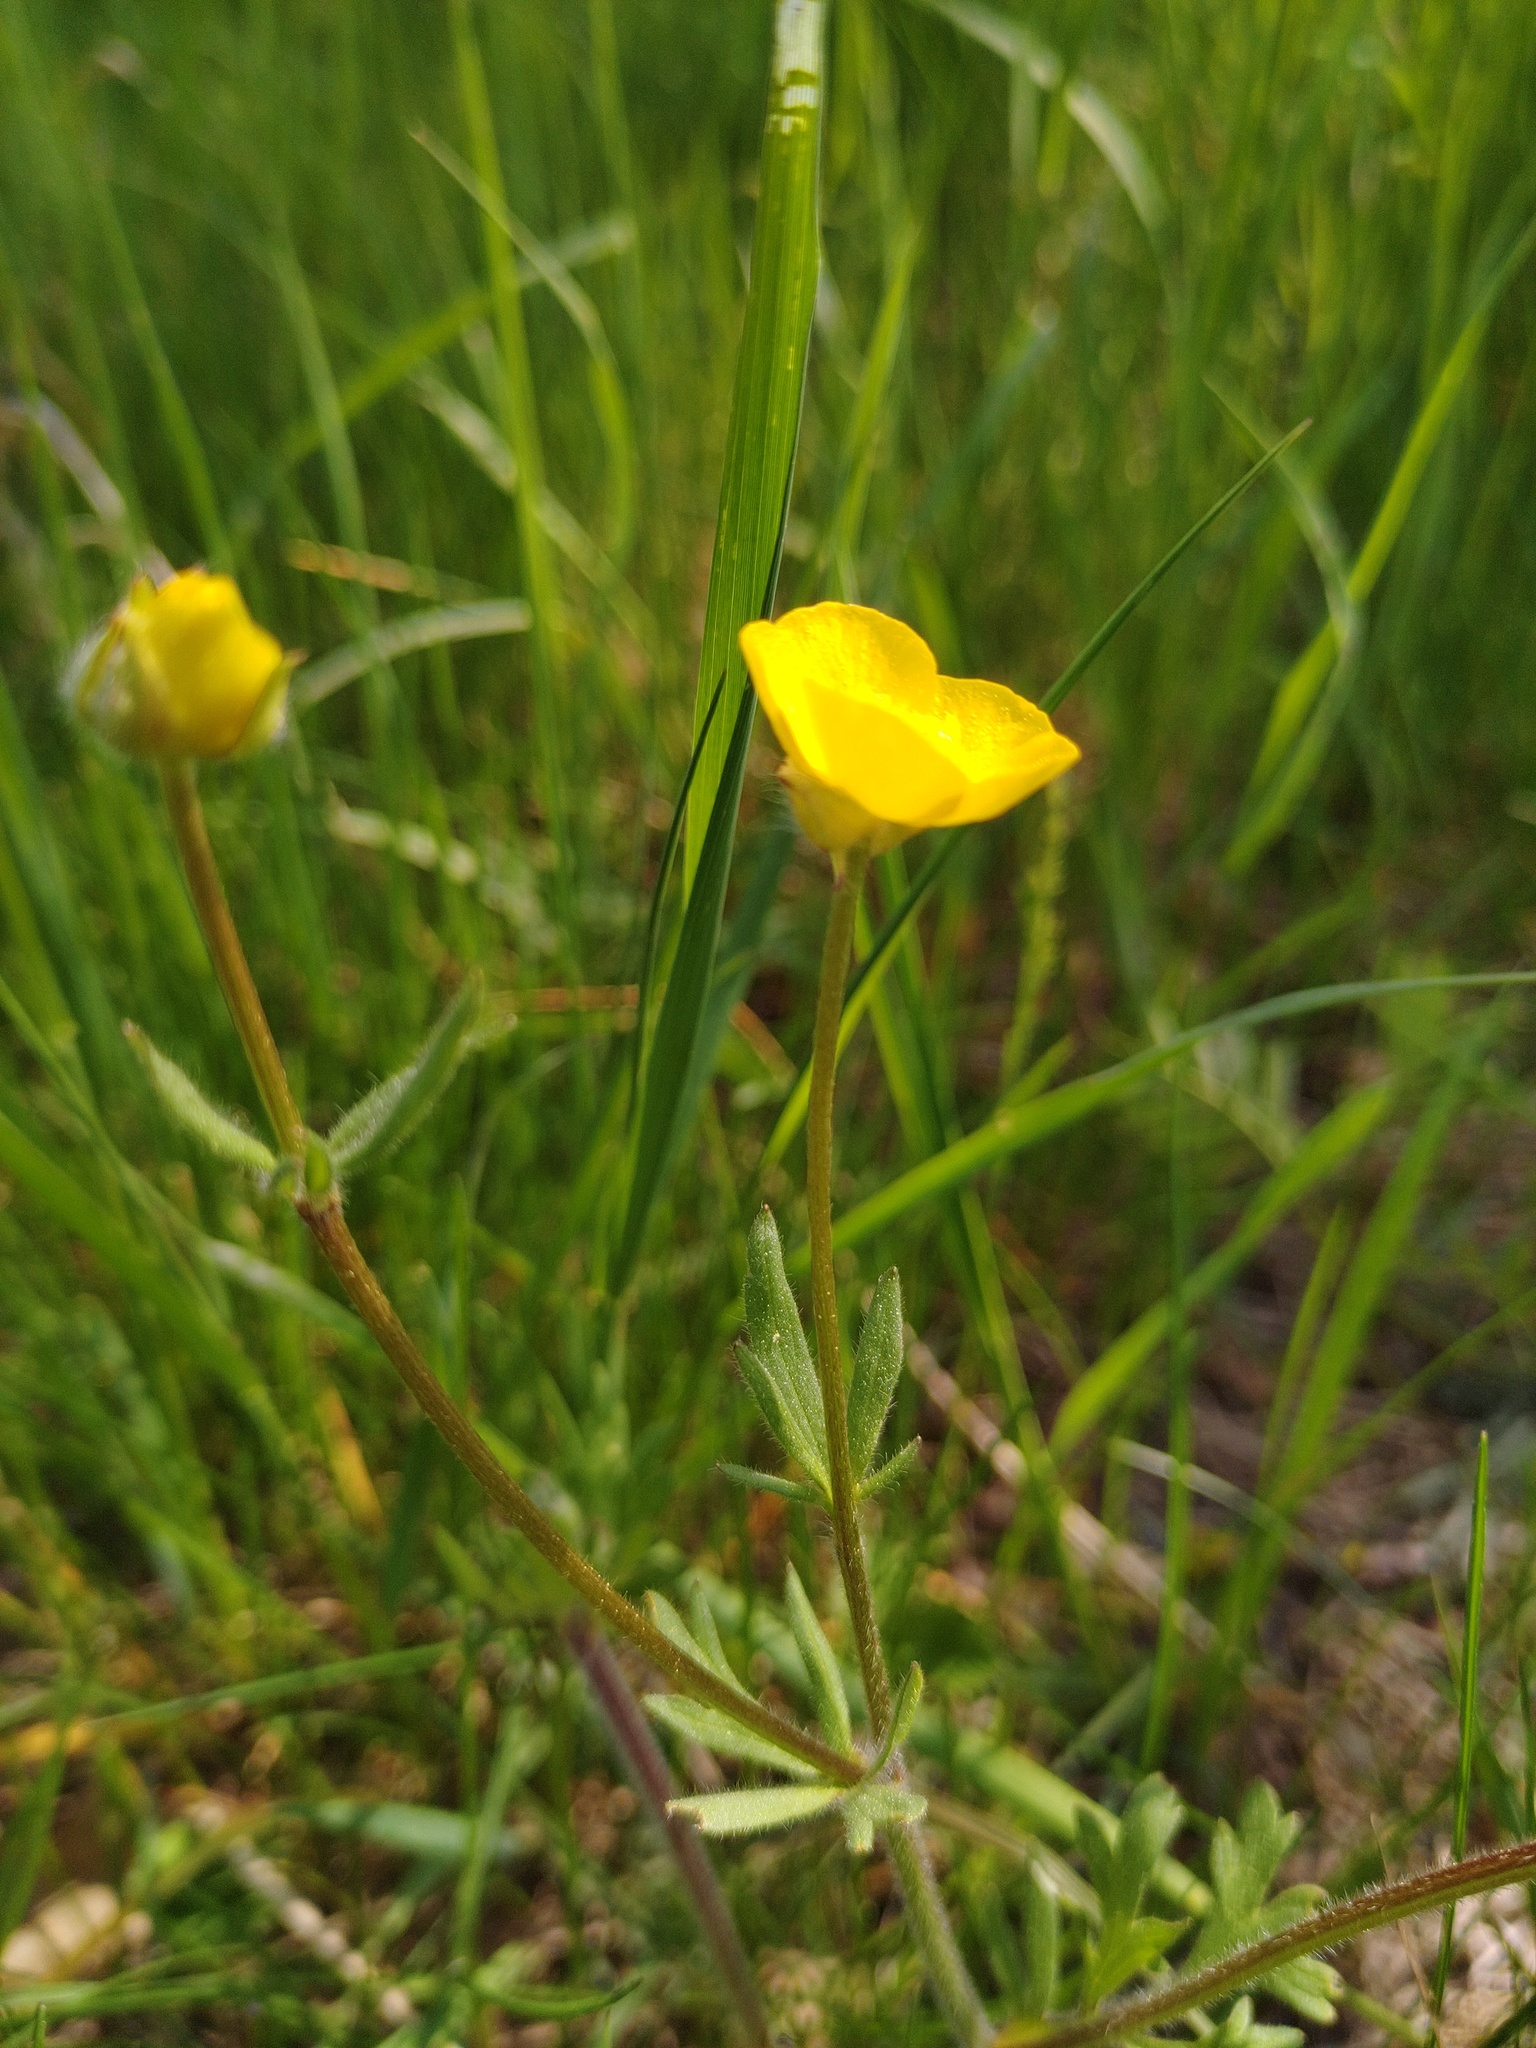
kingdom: Plantae
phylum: Tracheophyta
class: Magnoliopsida
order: Ranunculales
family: Ranunculaceae
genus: Ranunculus
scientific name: Ranunculus bulbosus
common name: Bulbous buttercup
